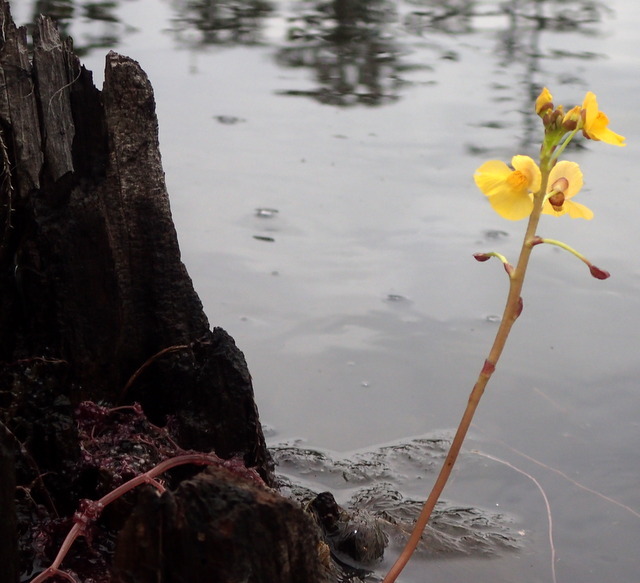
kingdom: Plantae
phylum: Tracheophyta
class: Magnoliopsida
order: Lamiales
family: Lentibulariaceae
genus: Utricularia
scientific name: Utricularia foliosa
